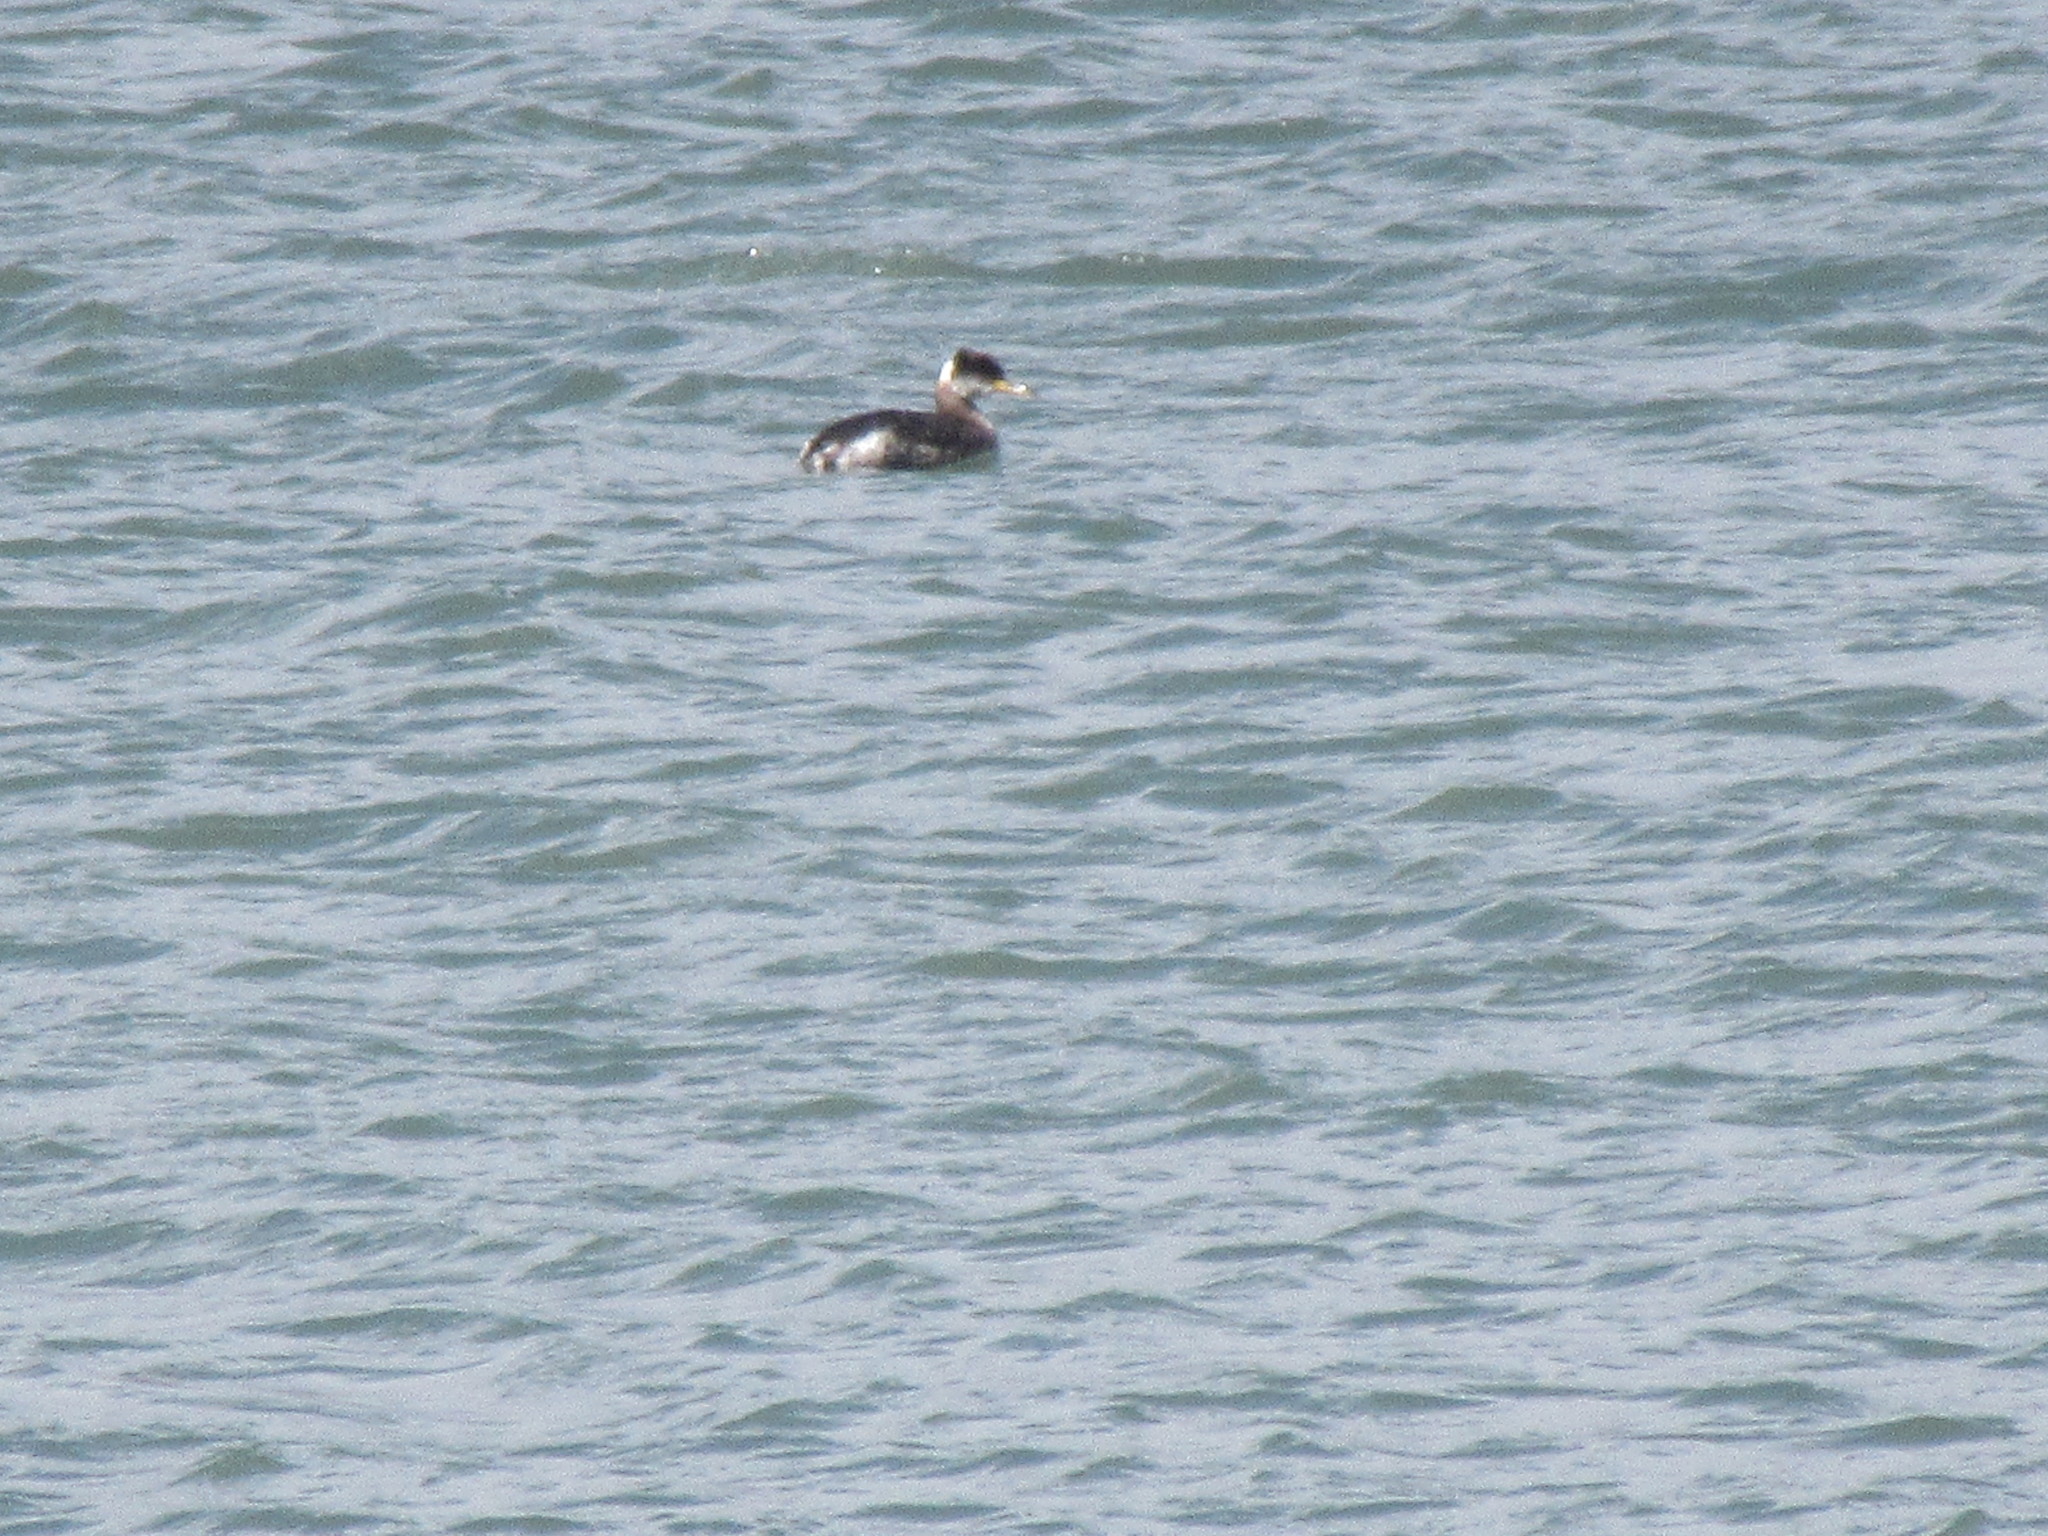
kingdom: Animalia
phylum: Chordata
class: Aves
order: Podicipediformes
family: Podicipedidae
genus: Podiceps
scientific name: Podiceps grisegena
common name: Red-necked grebe
